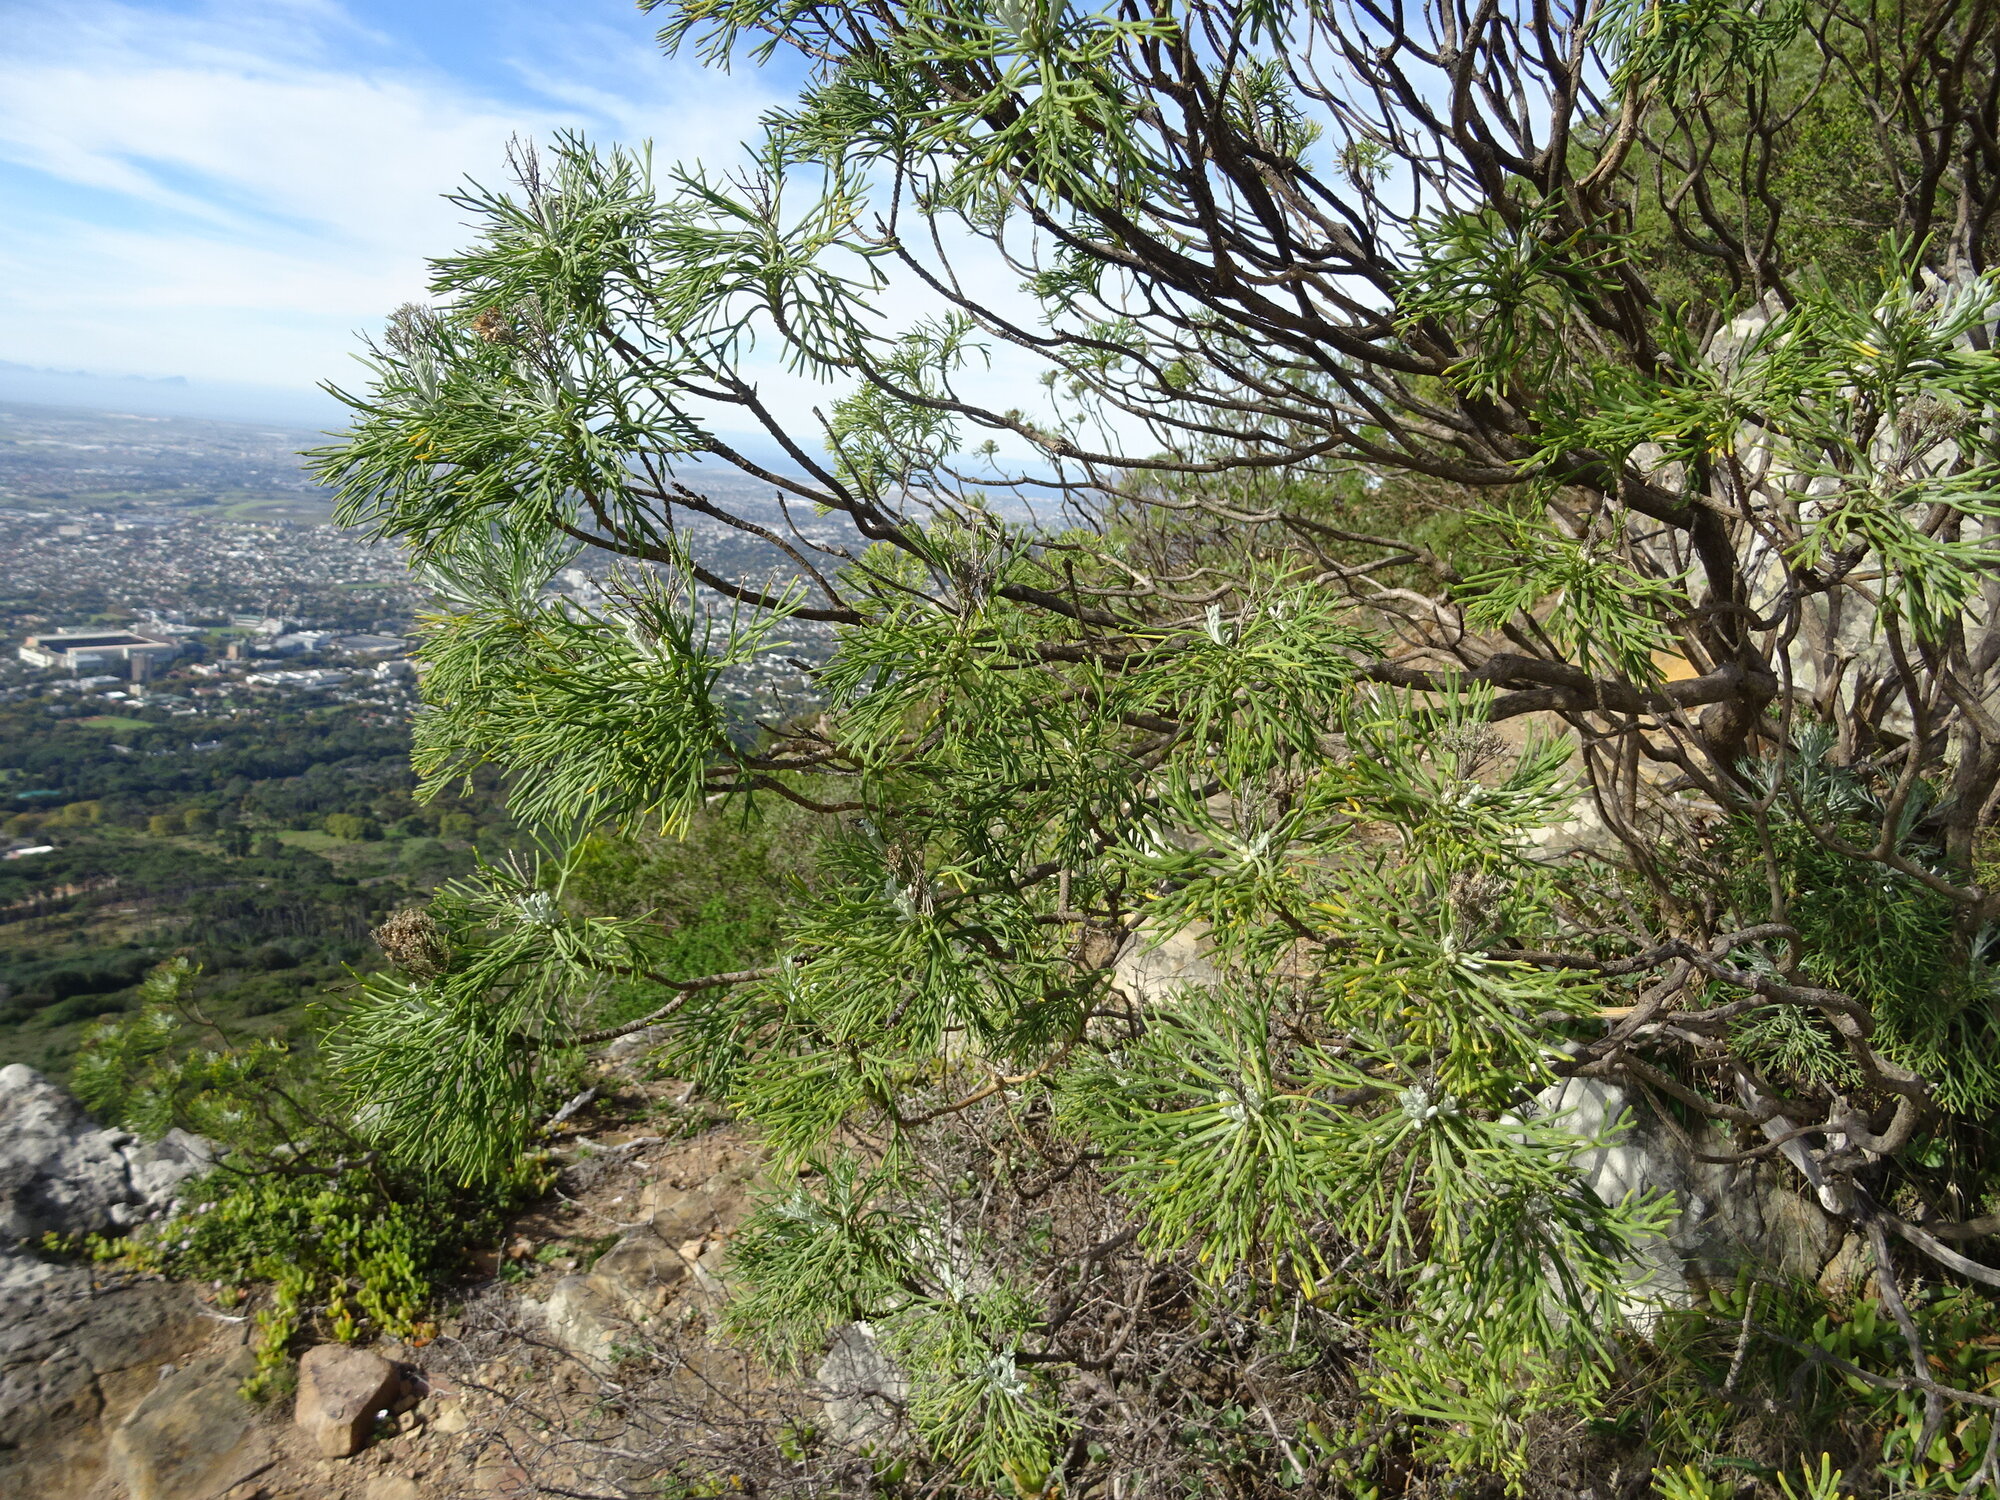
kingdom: Plantae
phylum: Tracheophyta
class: Magnoliopsida
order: Asterales
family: Asteraceae
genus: Hymenolepis
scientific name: Hymenolepis crithmifolia
